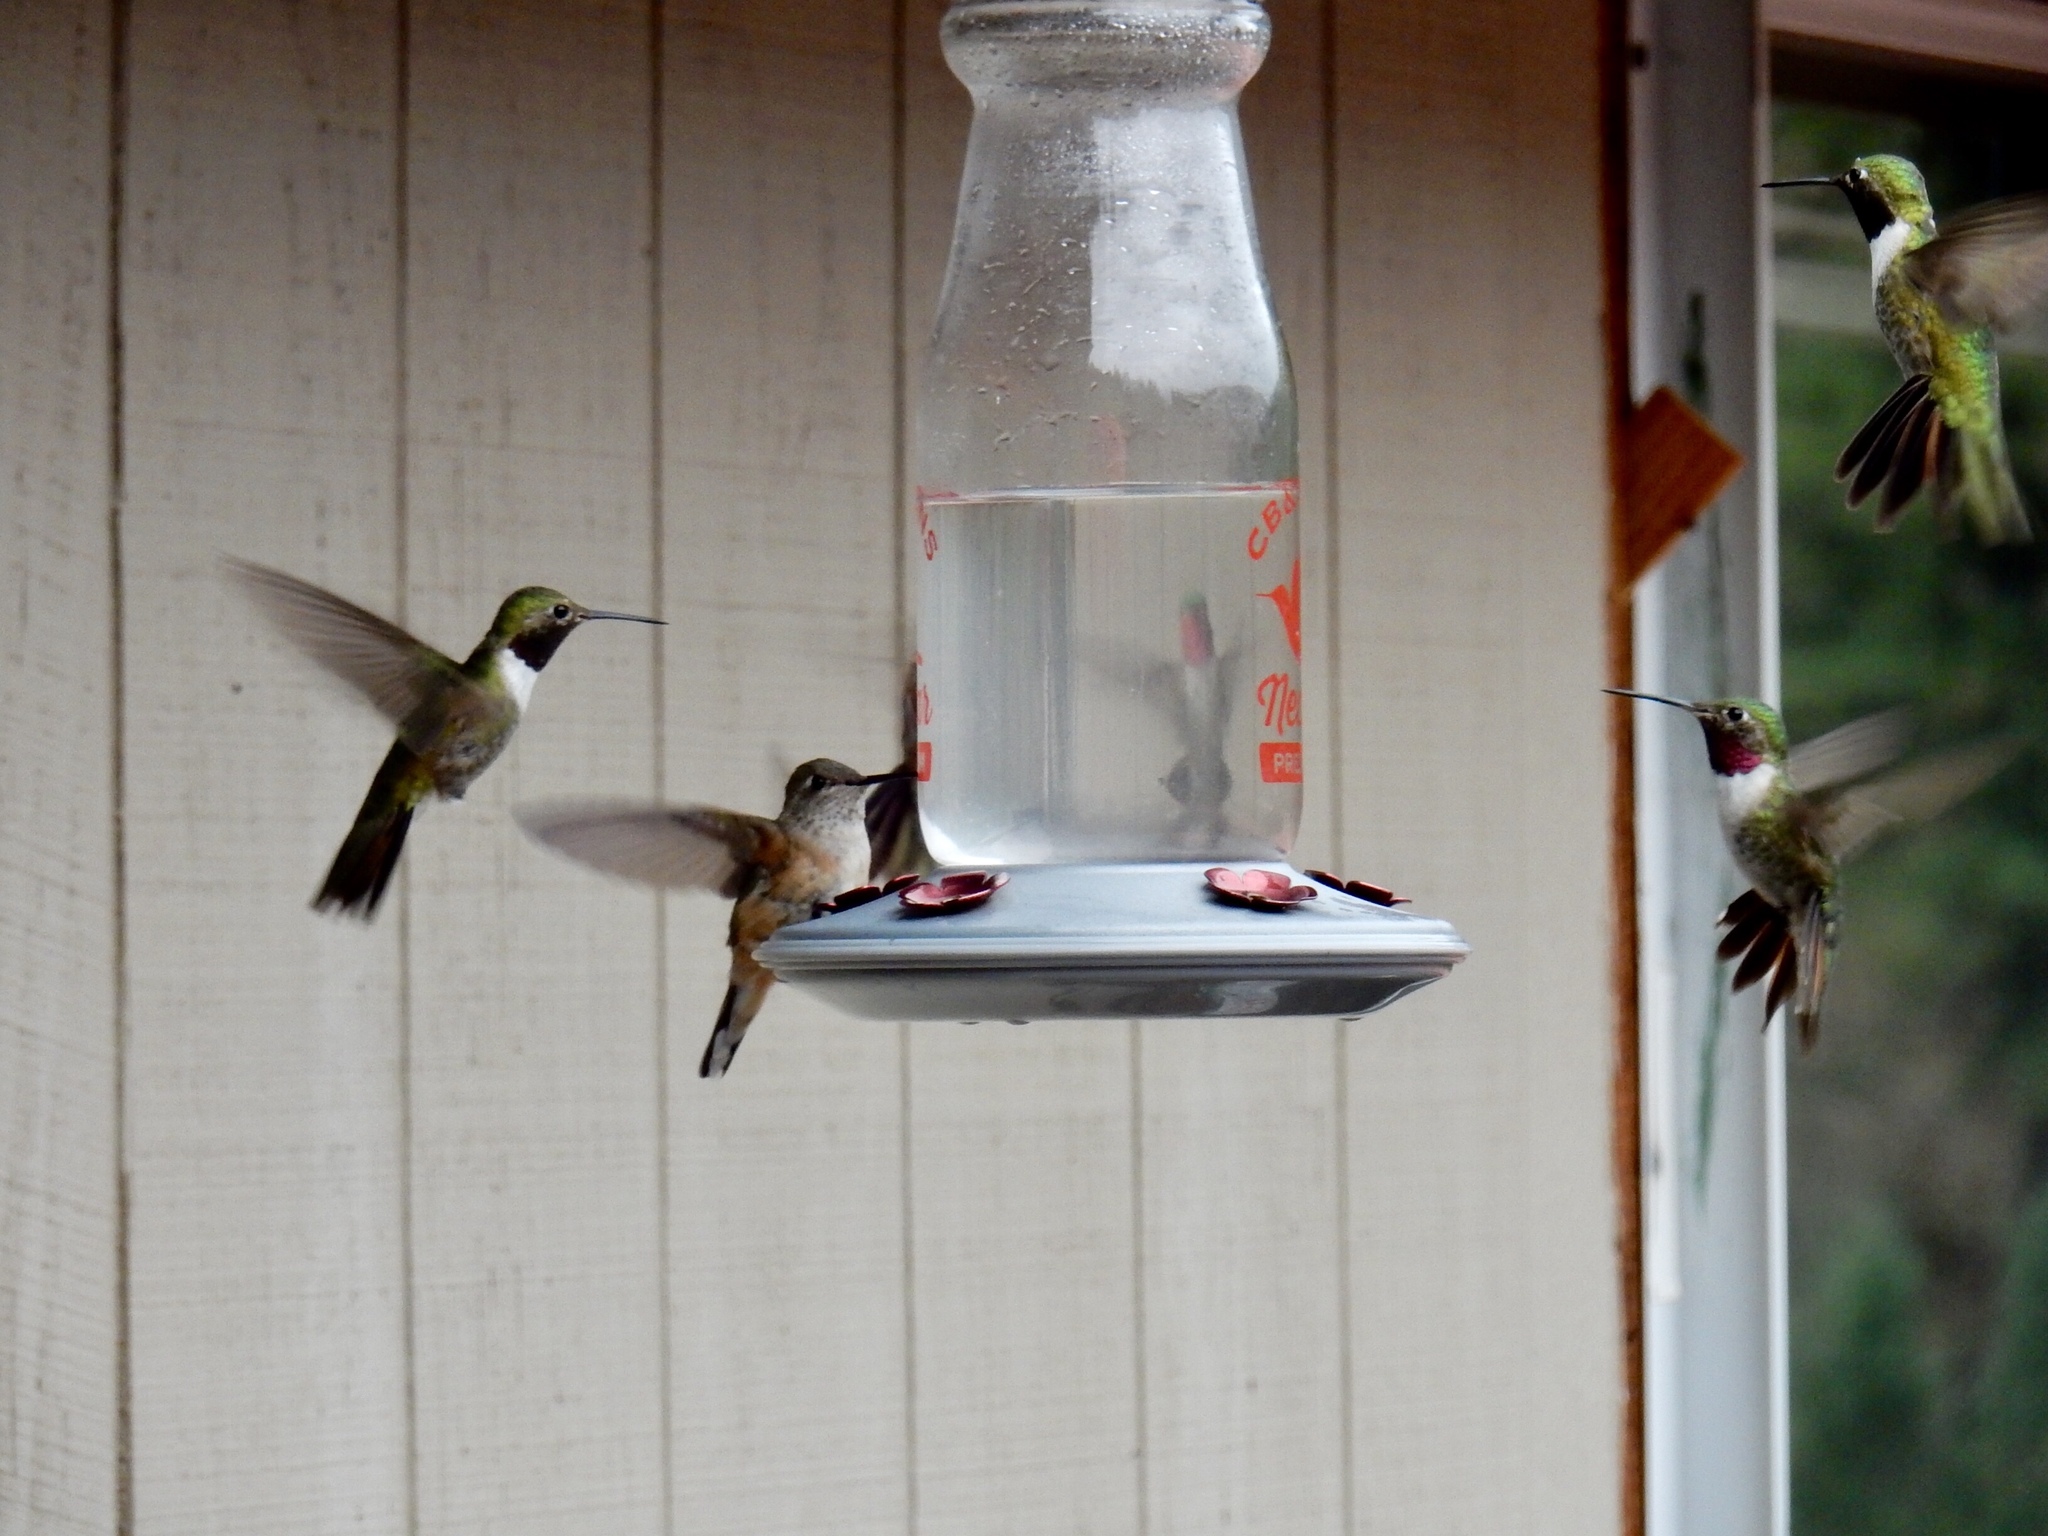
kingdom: Animalia
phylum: Chordata
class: Aves
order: Apodiformes
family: Trochilidae
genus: Selasphorus
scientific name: Selasphorus platycercus
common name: Broad-tailed hummingbird
